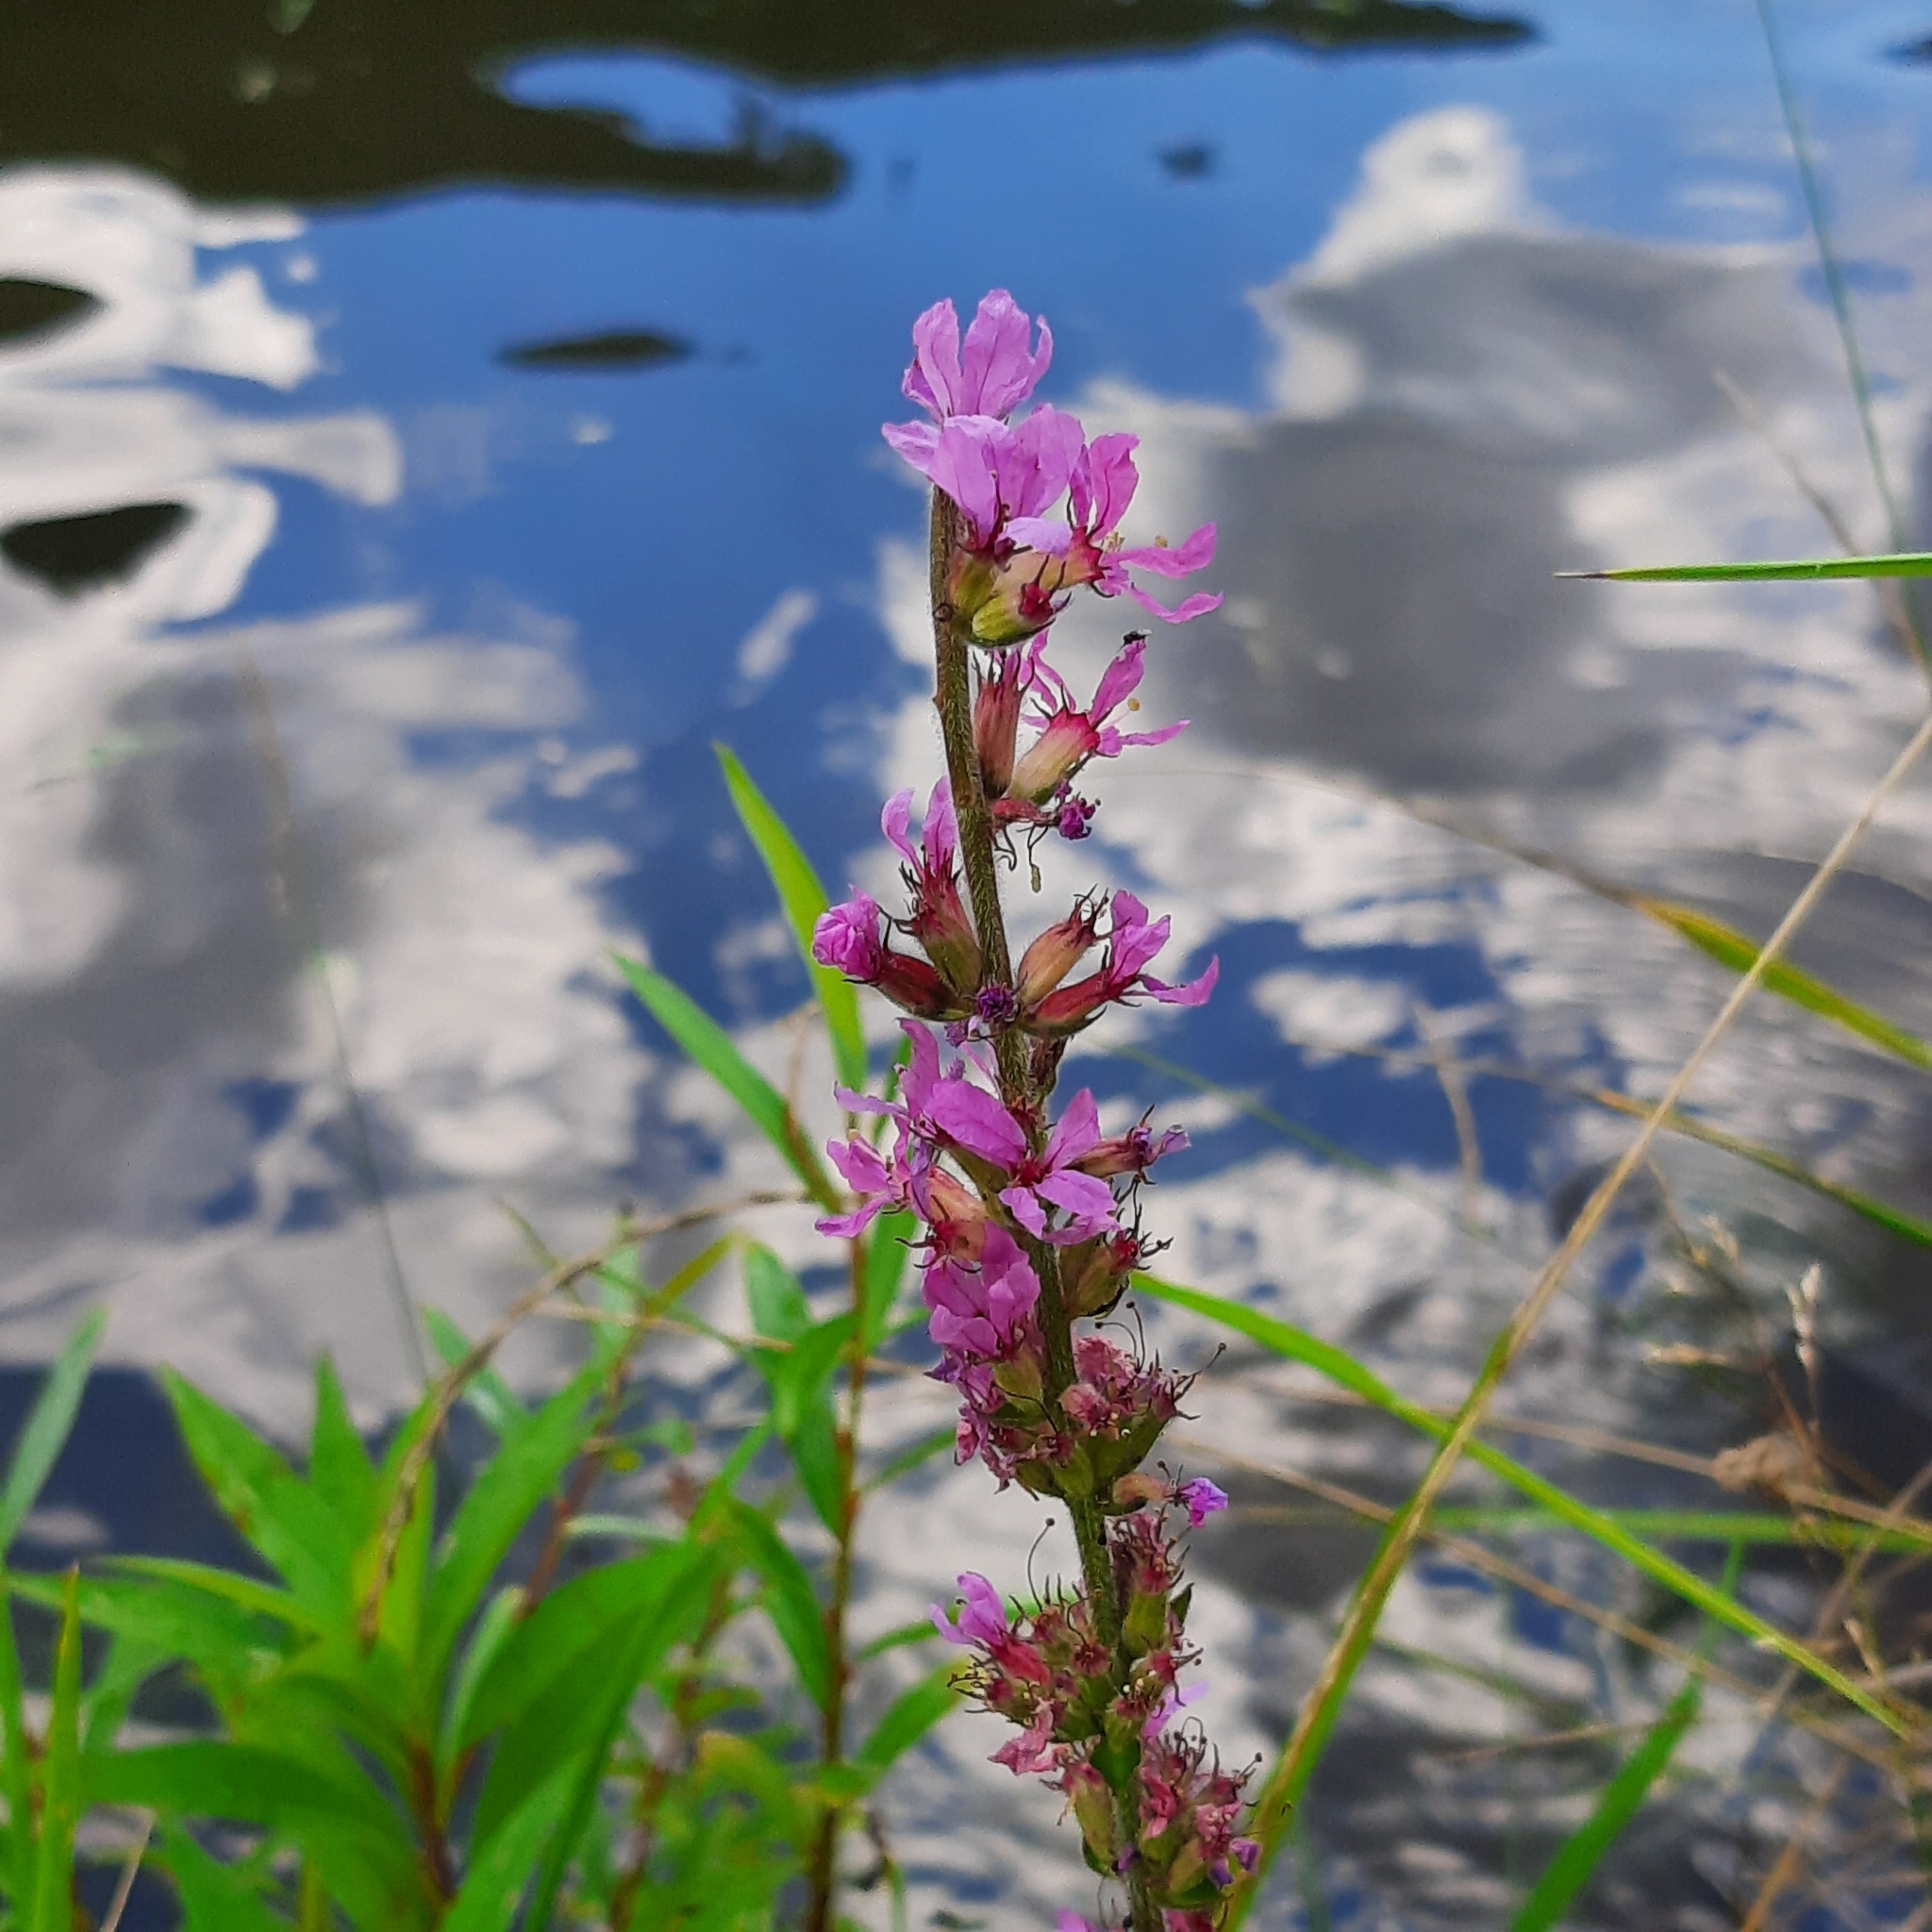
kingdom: Plantae
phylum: Tracheophyta
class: Magnoliopsida
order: Myrtales
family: Lythraceae
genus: Lythrum
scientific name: Lythrum salicaria
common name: Purple loosestrife
